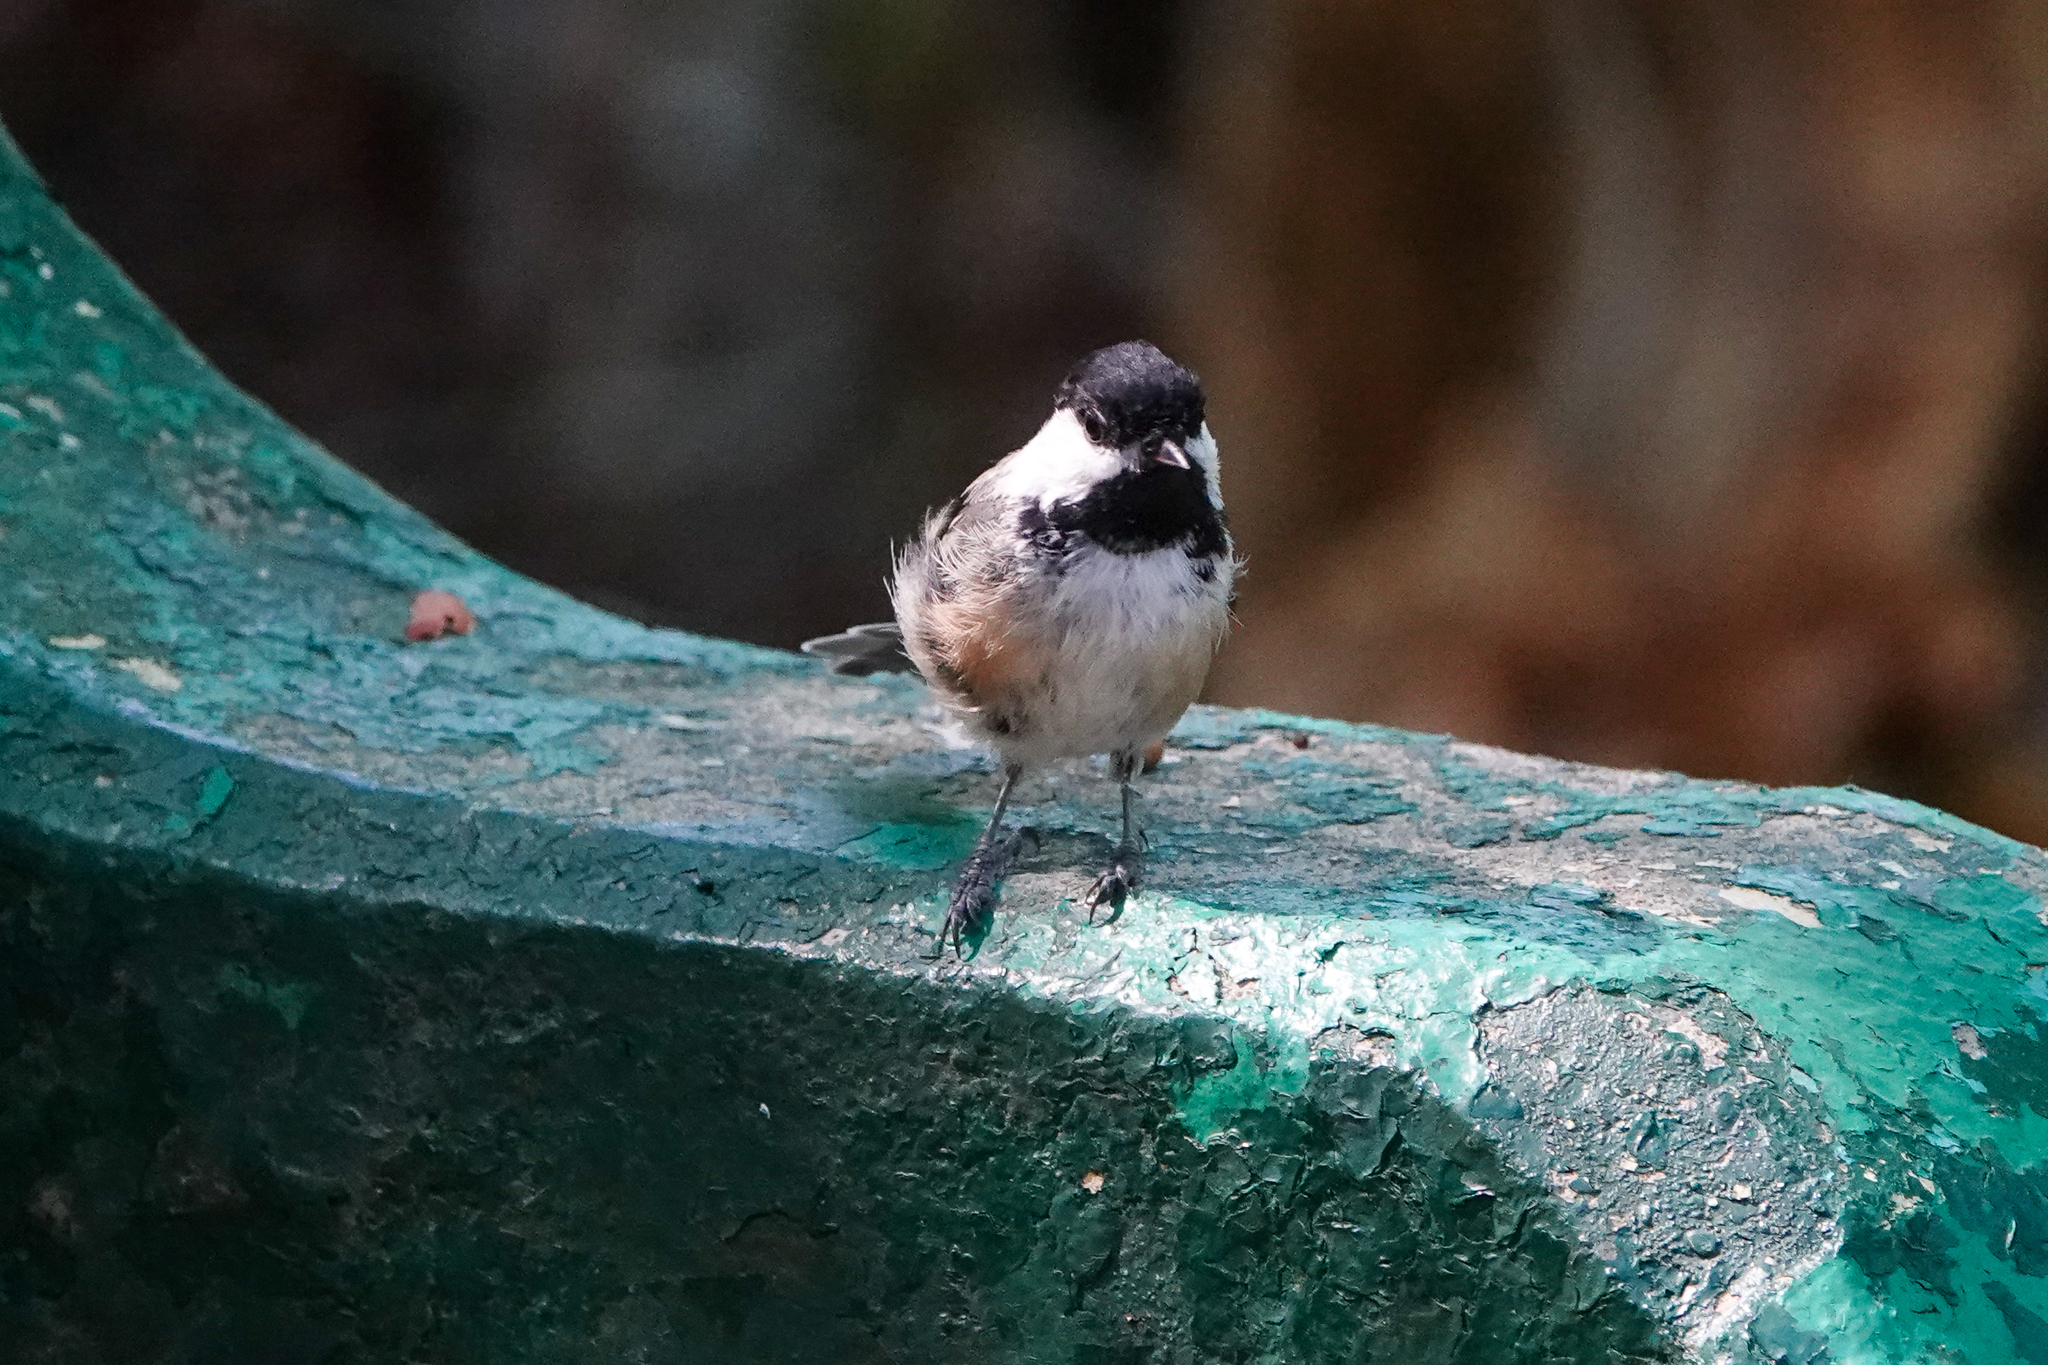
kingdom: Animalia
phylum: Chordata
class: Aves
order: Passeriformes
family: Paridae
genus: Poecile
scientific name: Poecile atricapillus
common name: Black-capped chickadee
